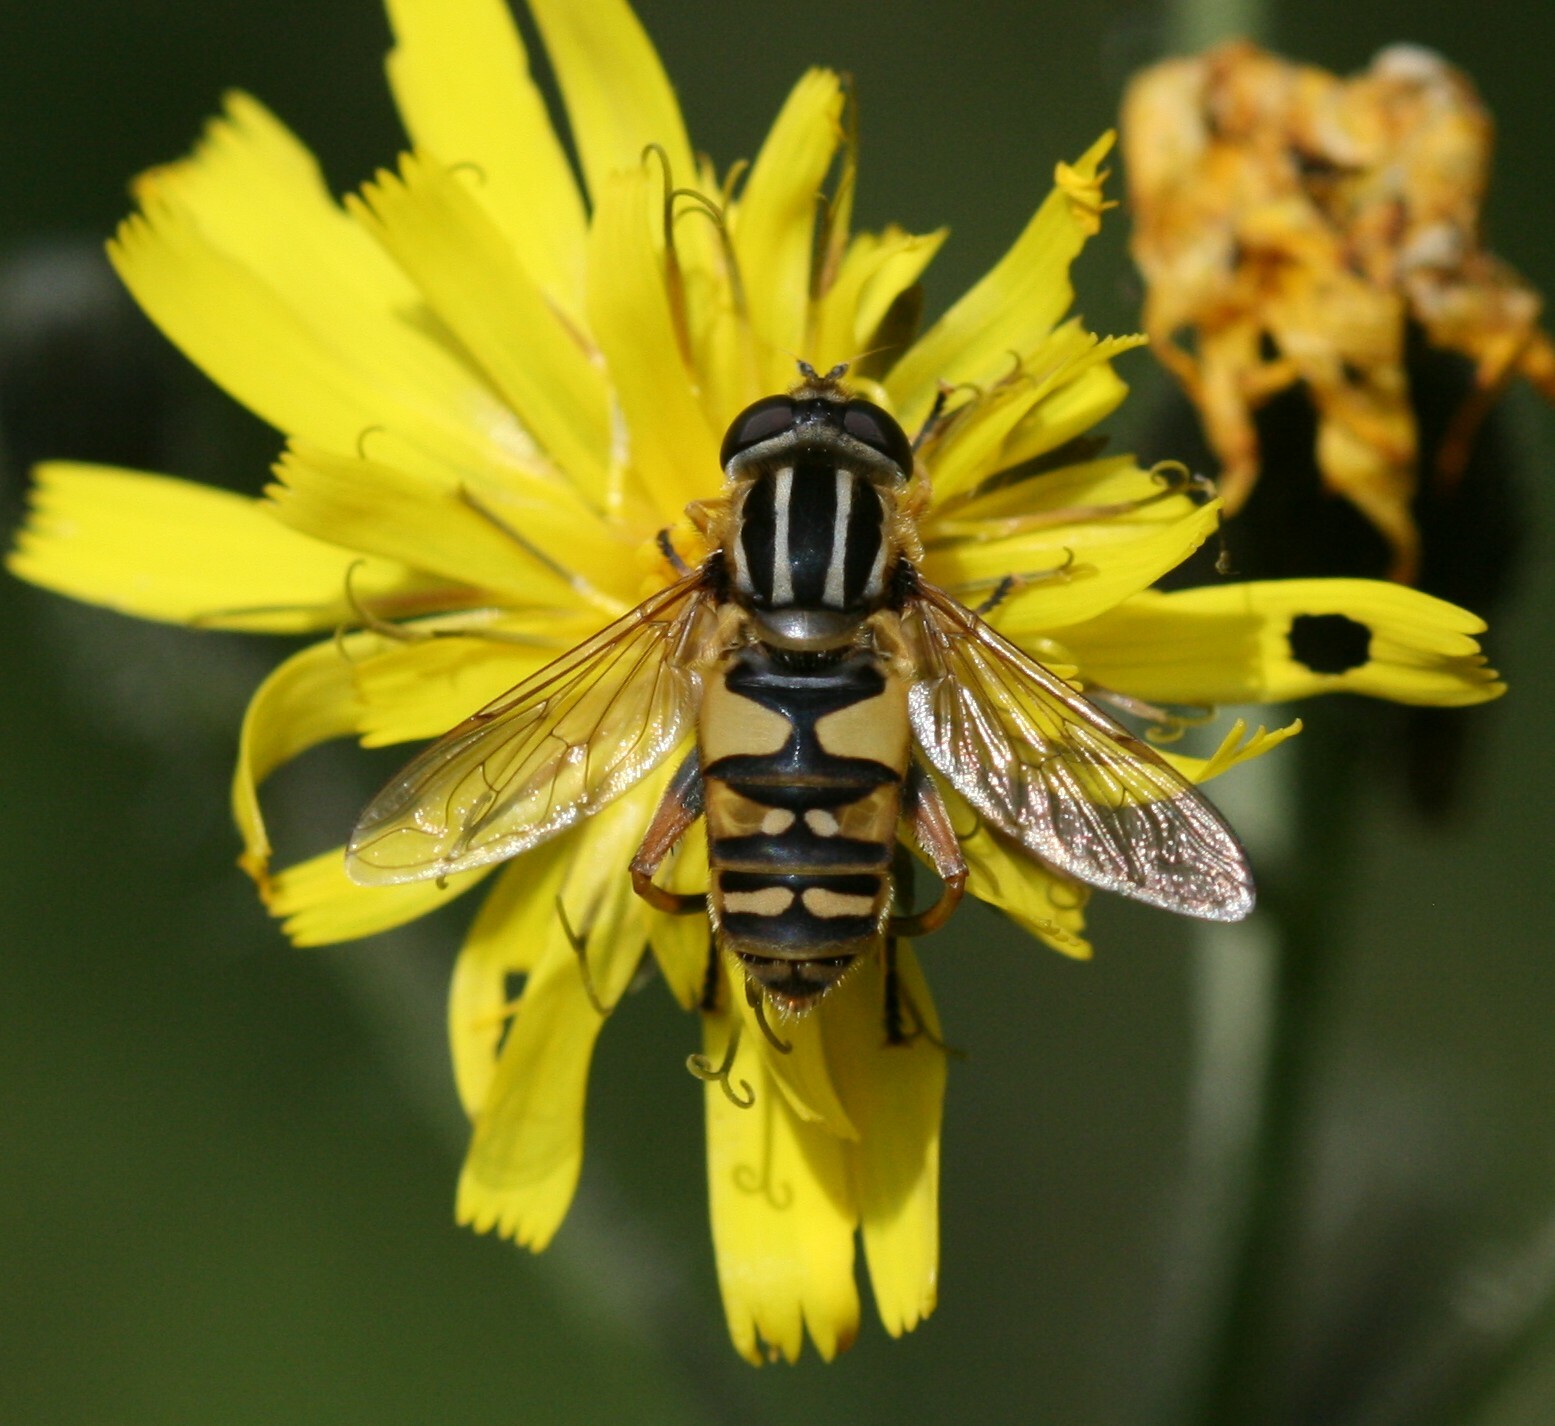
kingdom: Animalia
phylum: Arthropoda
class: Insecta
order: Diptera
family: Syrphidae
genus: Helophilus
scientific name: Helophilus pendulus
